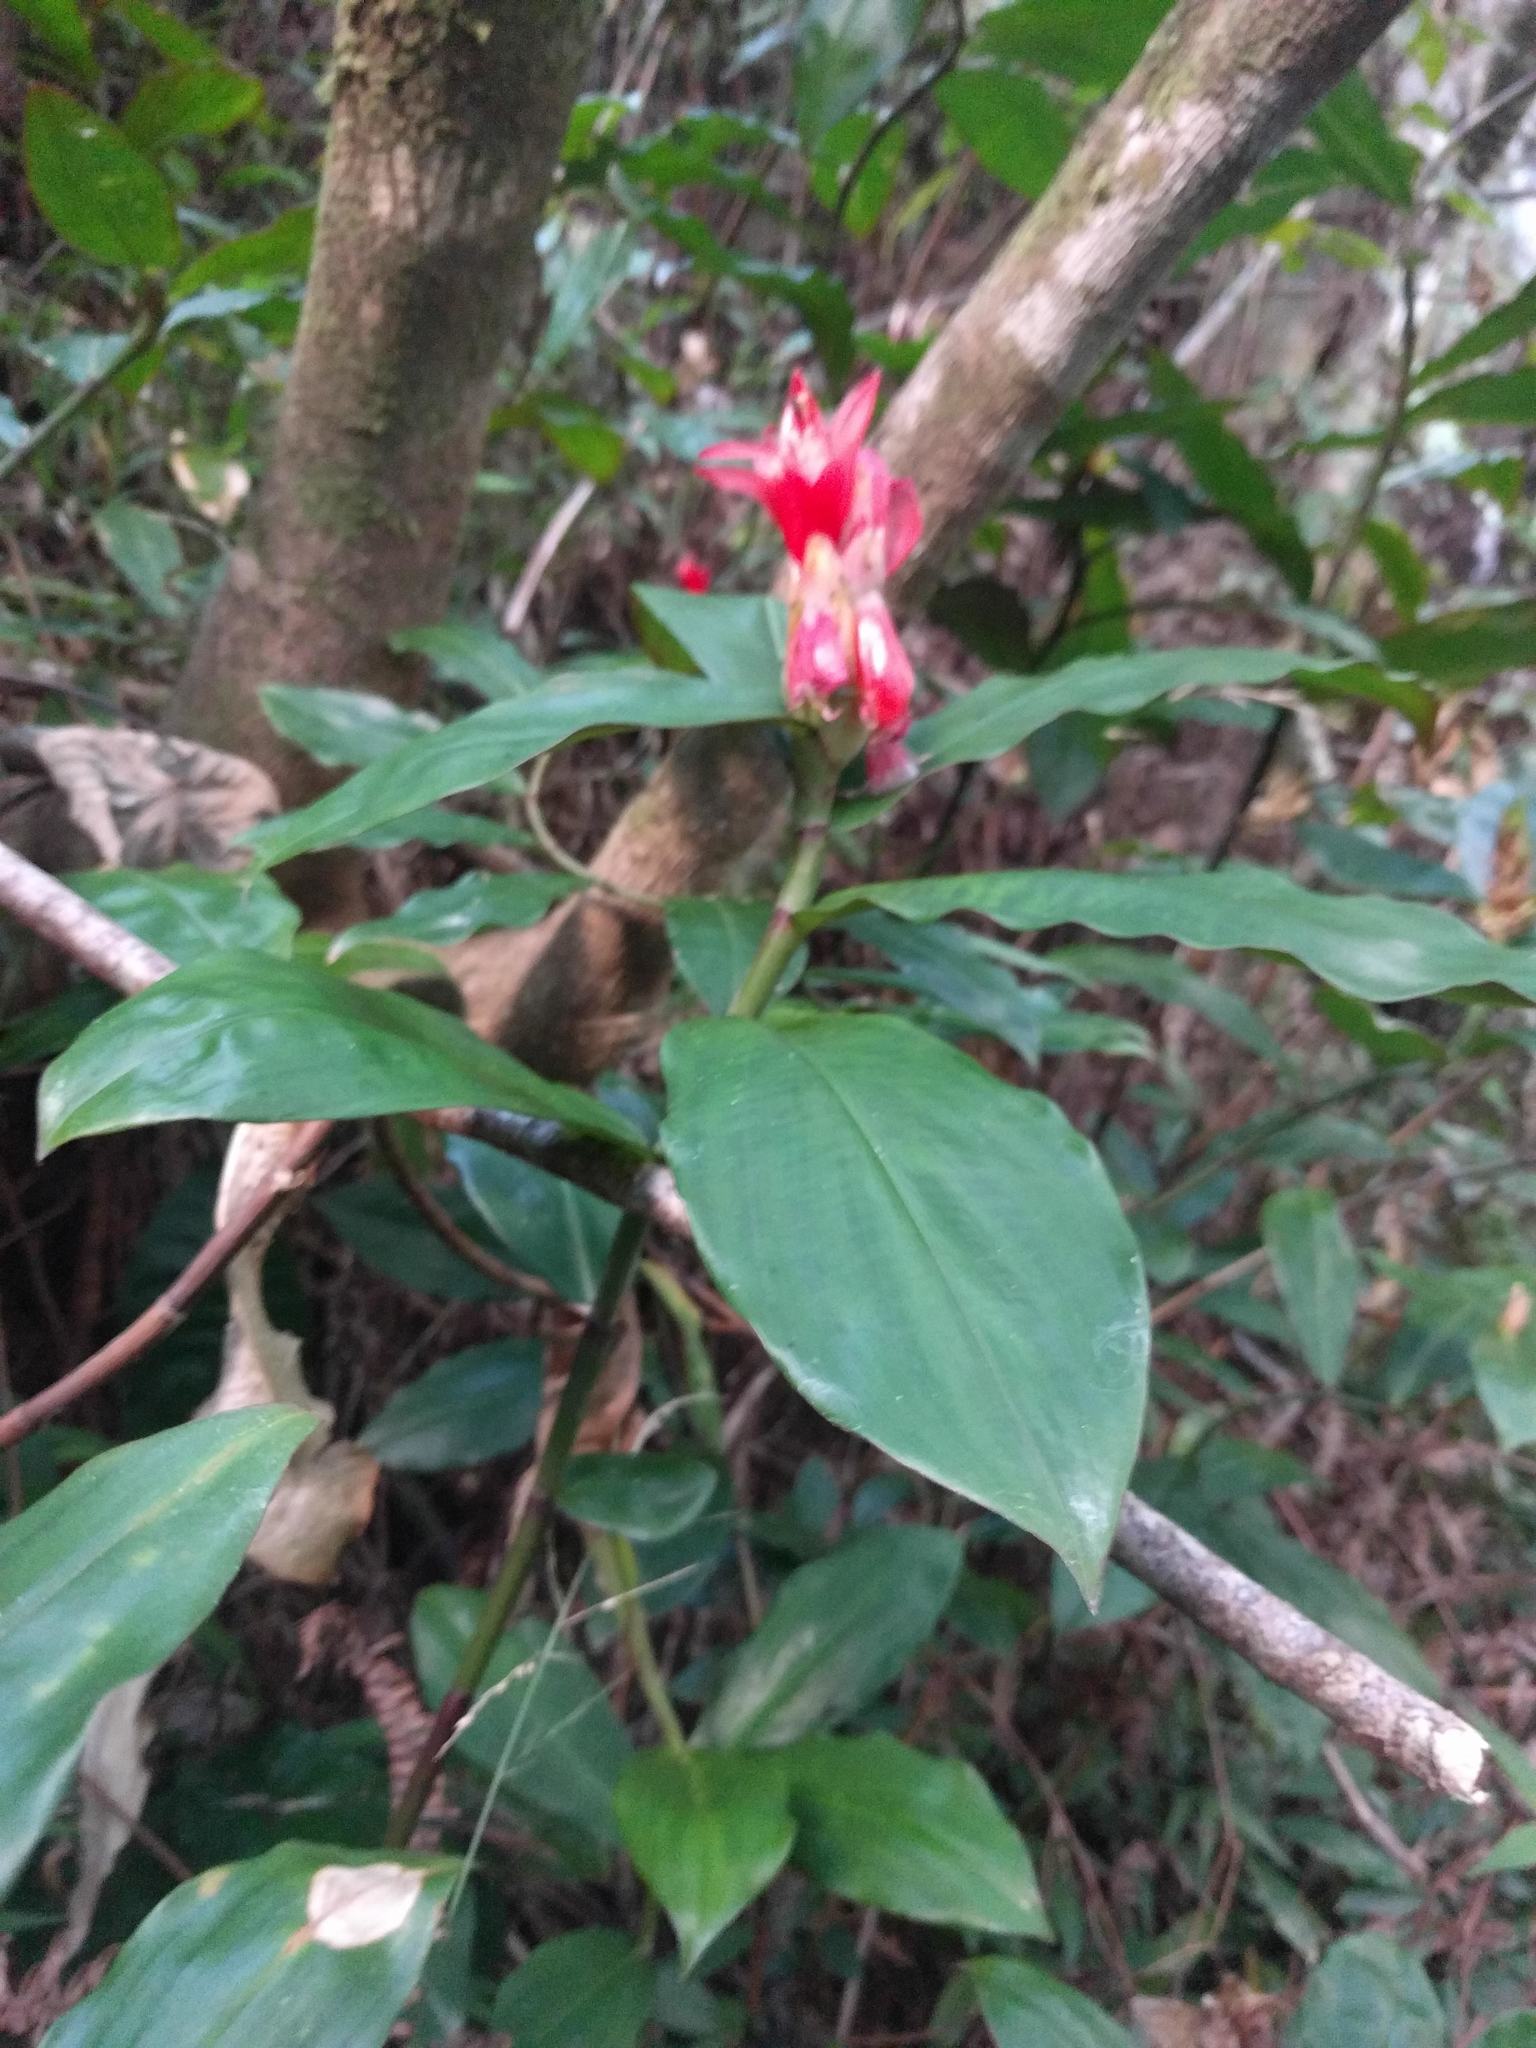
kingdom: Plantae
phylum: Tracheophyta
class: Liliopsida
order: Zingiberales
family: Costaceae
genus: Costus
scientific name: Costus pulverulentus
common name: Spiral ginger
